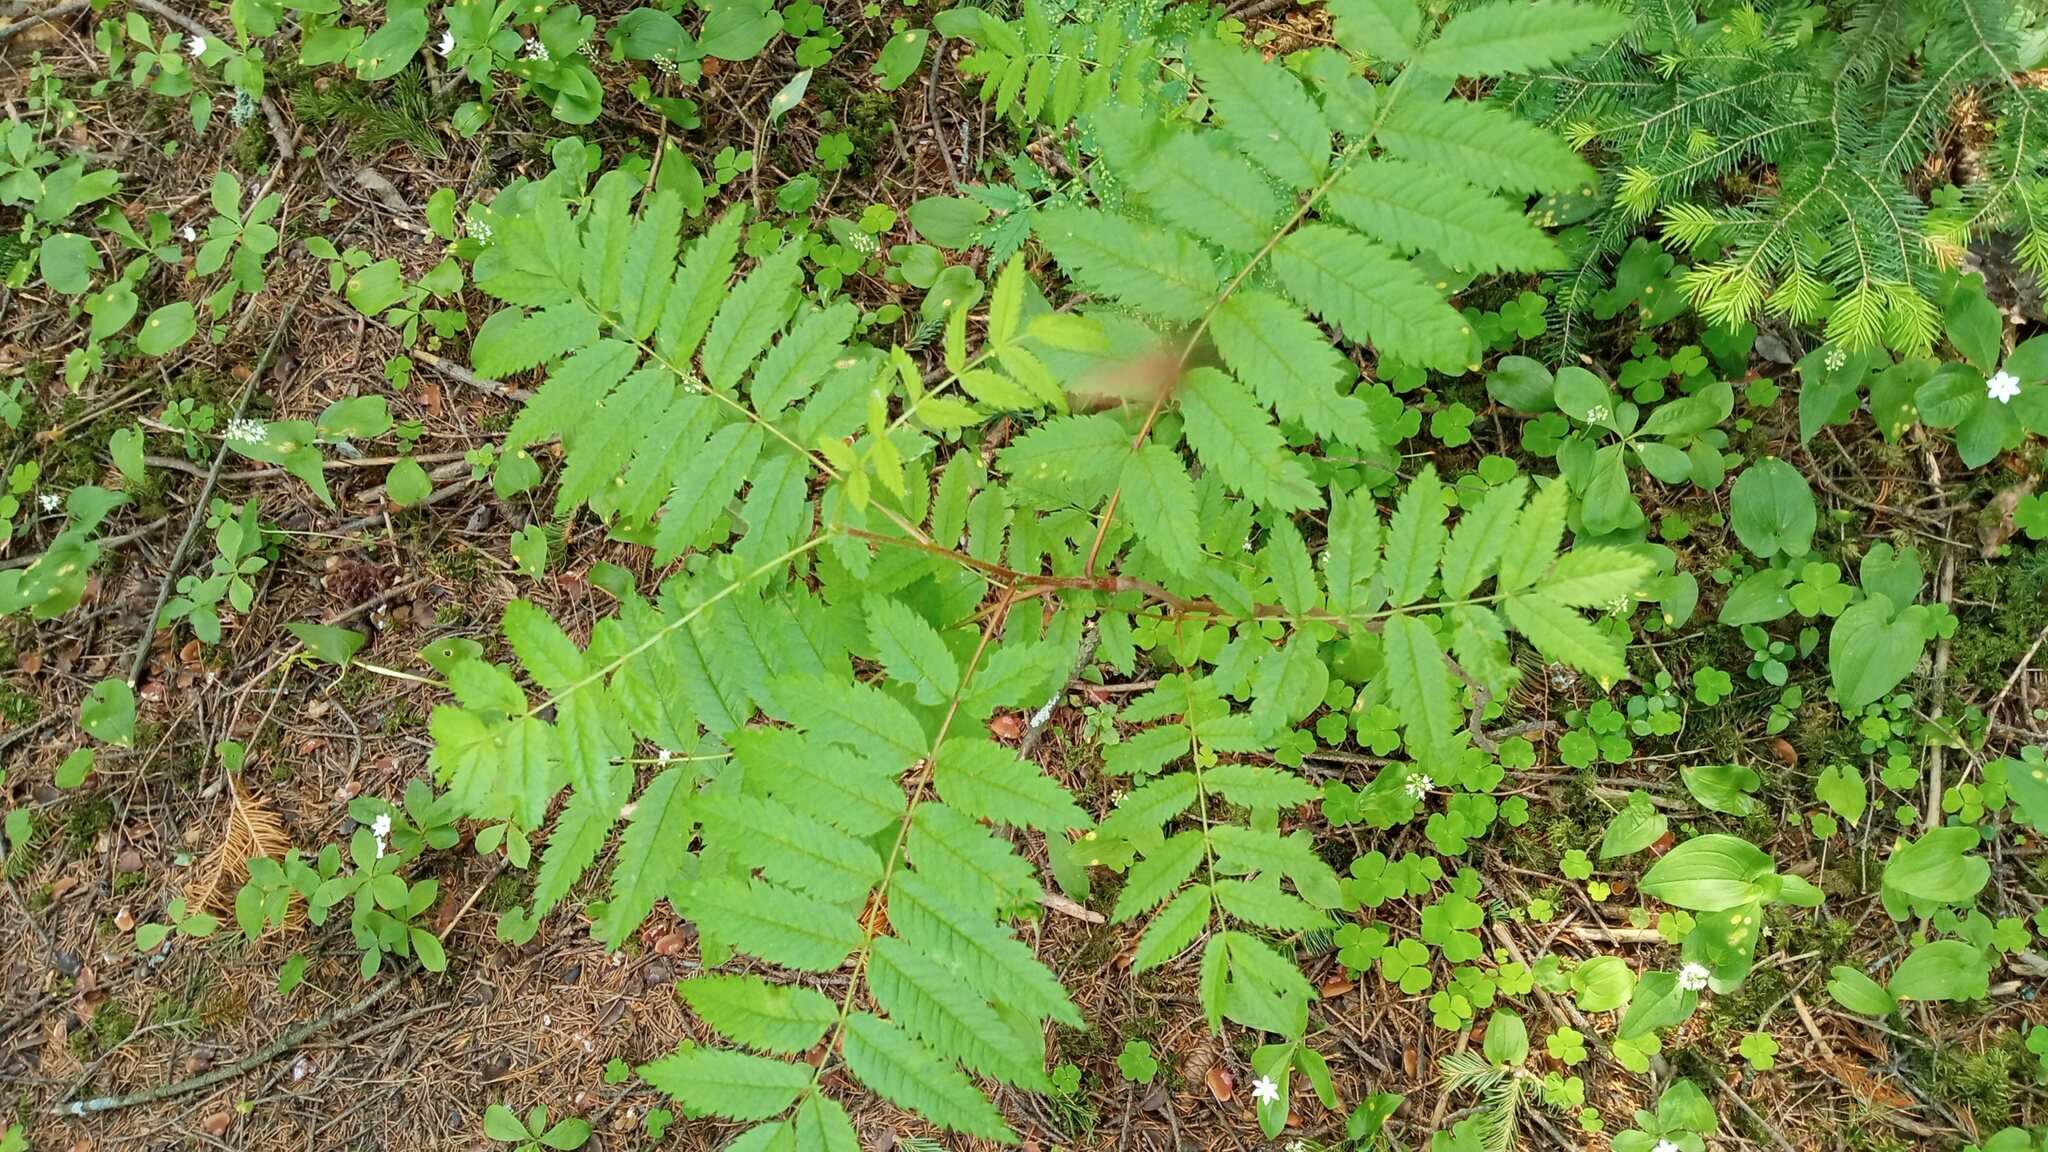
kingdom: Plantae
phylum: Tracheophyta
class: Magnoliopsida
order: Rosales
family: Rosaceae
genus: Sorbus
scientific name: Sorbus aucuparia
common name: Rowan
